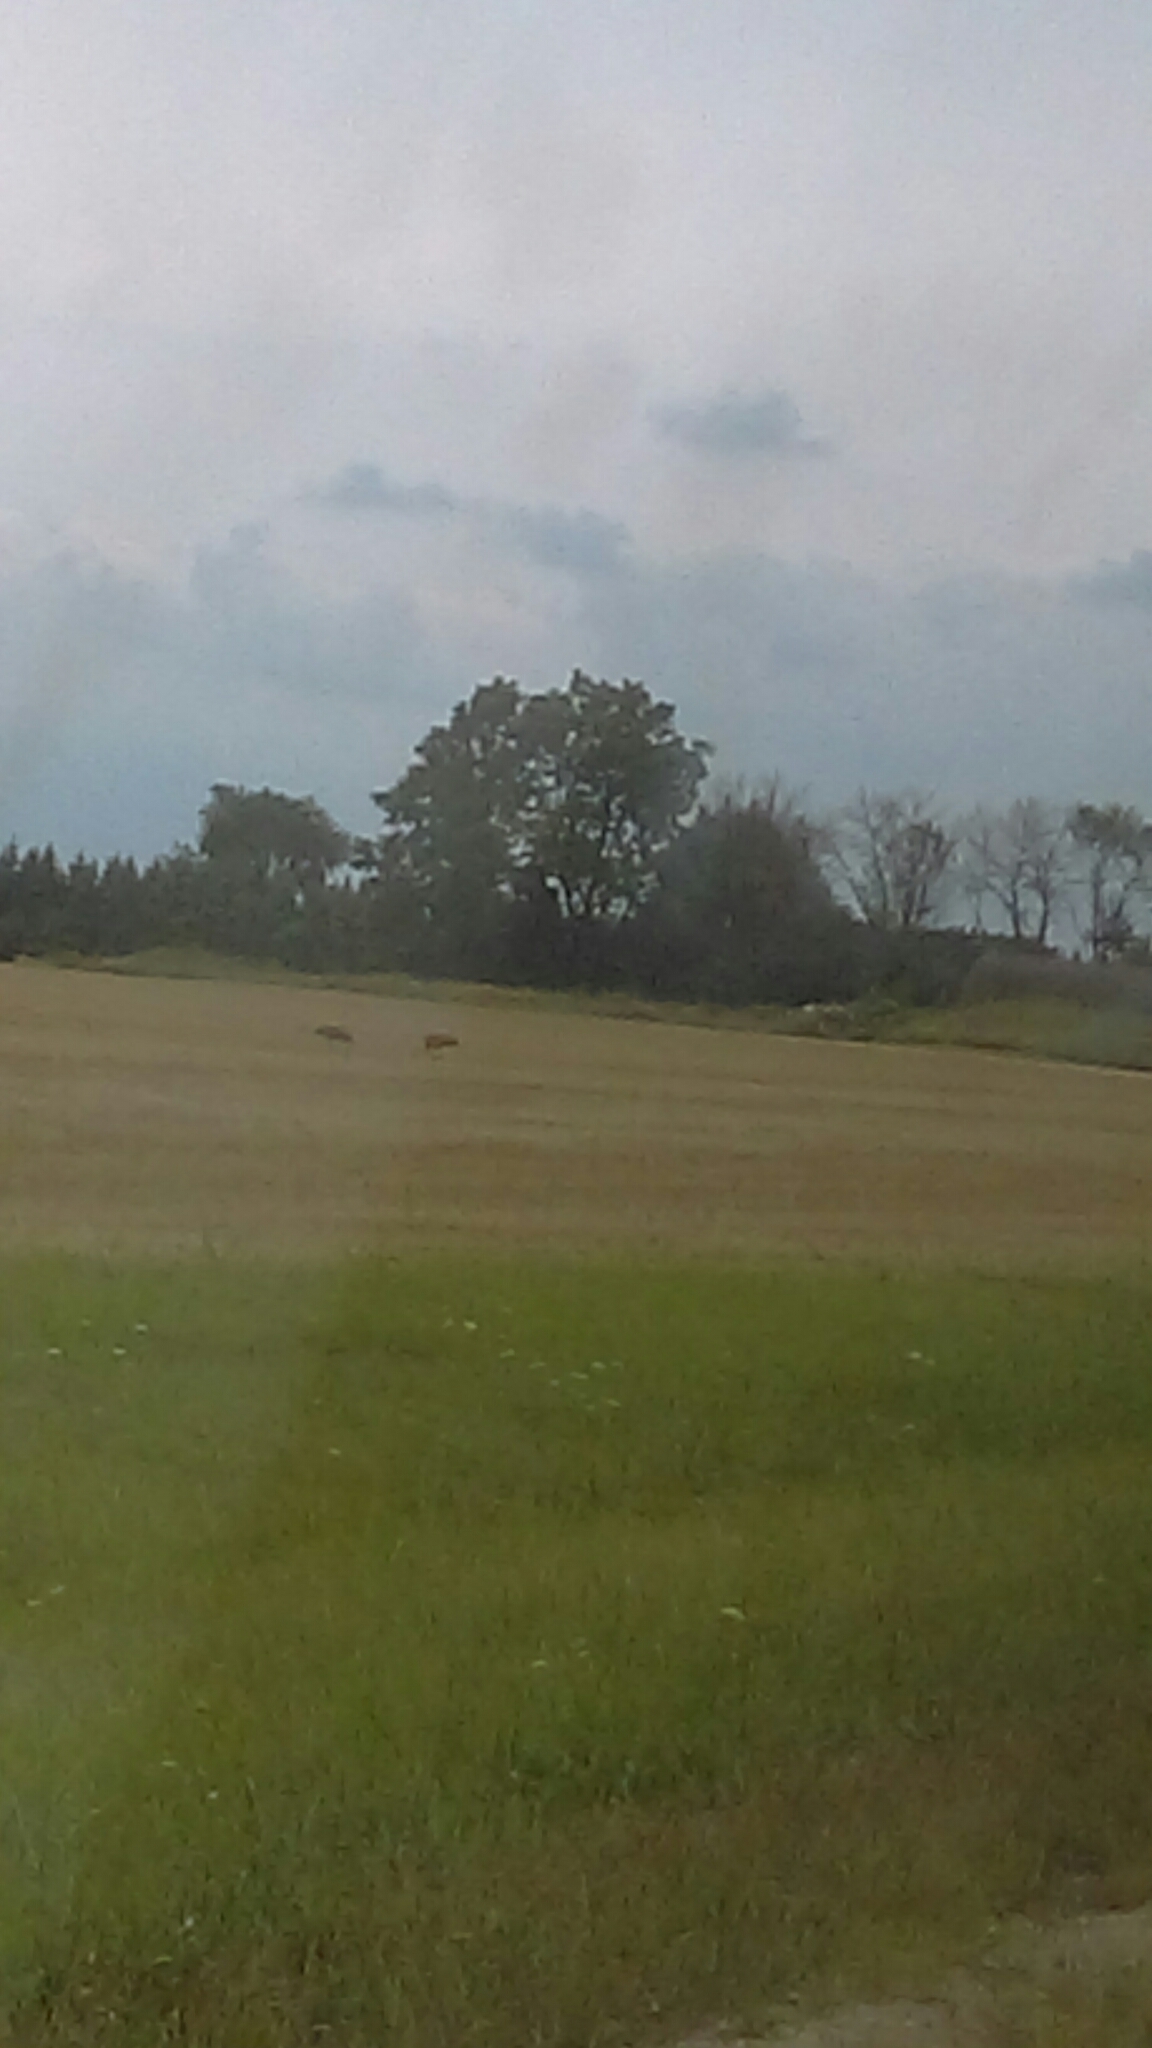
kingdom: Animalia
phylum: Chordata
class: Aves
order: Gruiformes
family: Gruidae
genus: Grus
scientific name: Grus canadensis
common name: Sandhill crane
